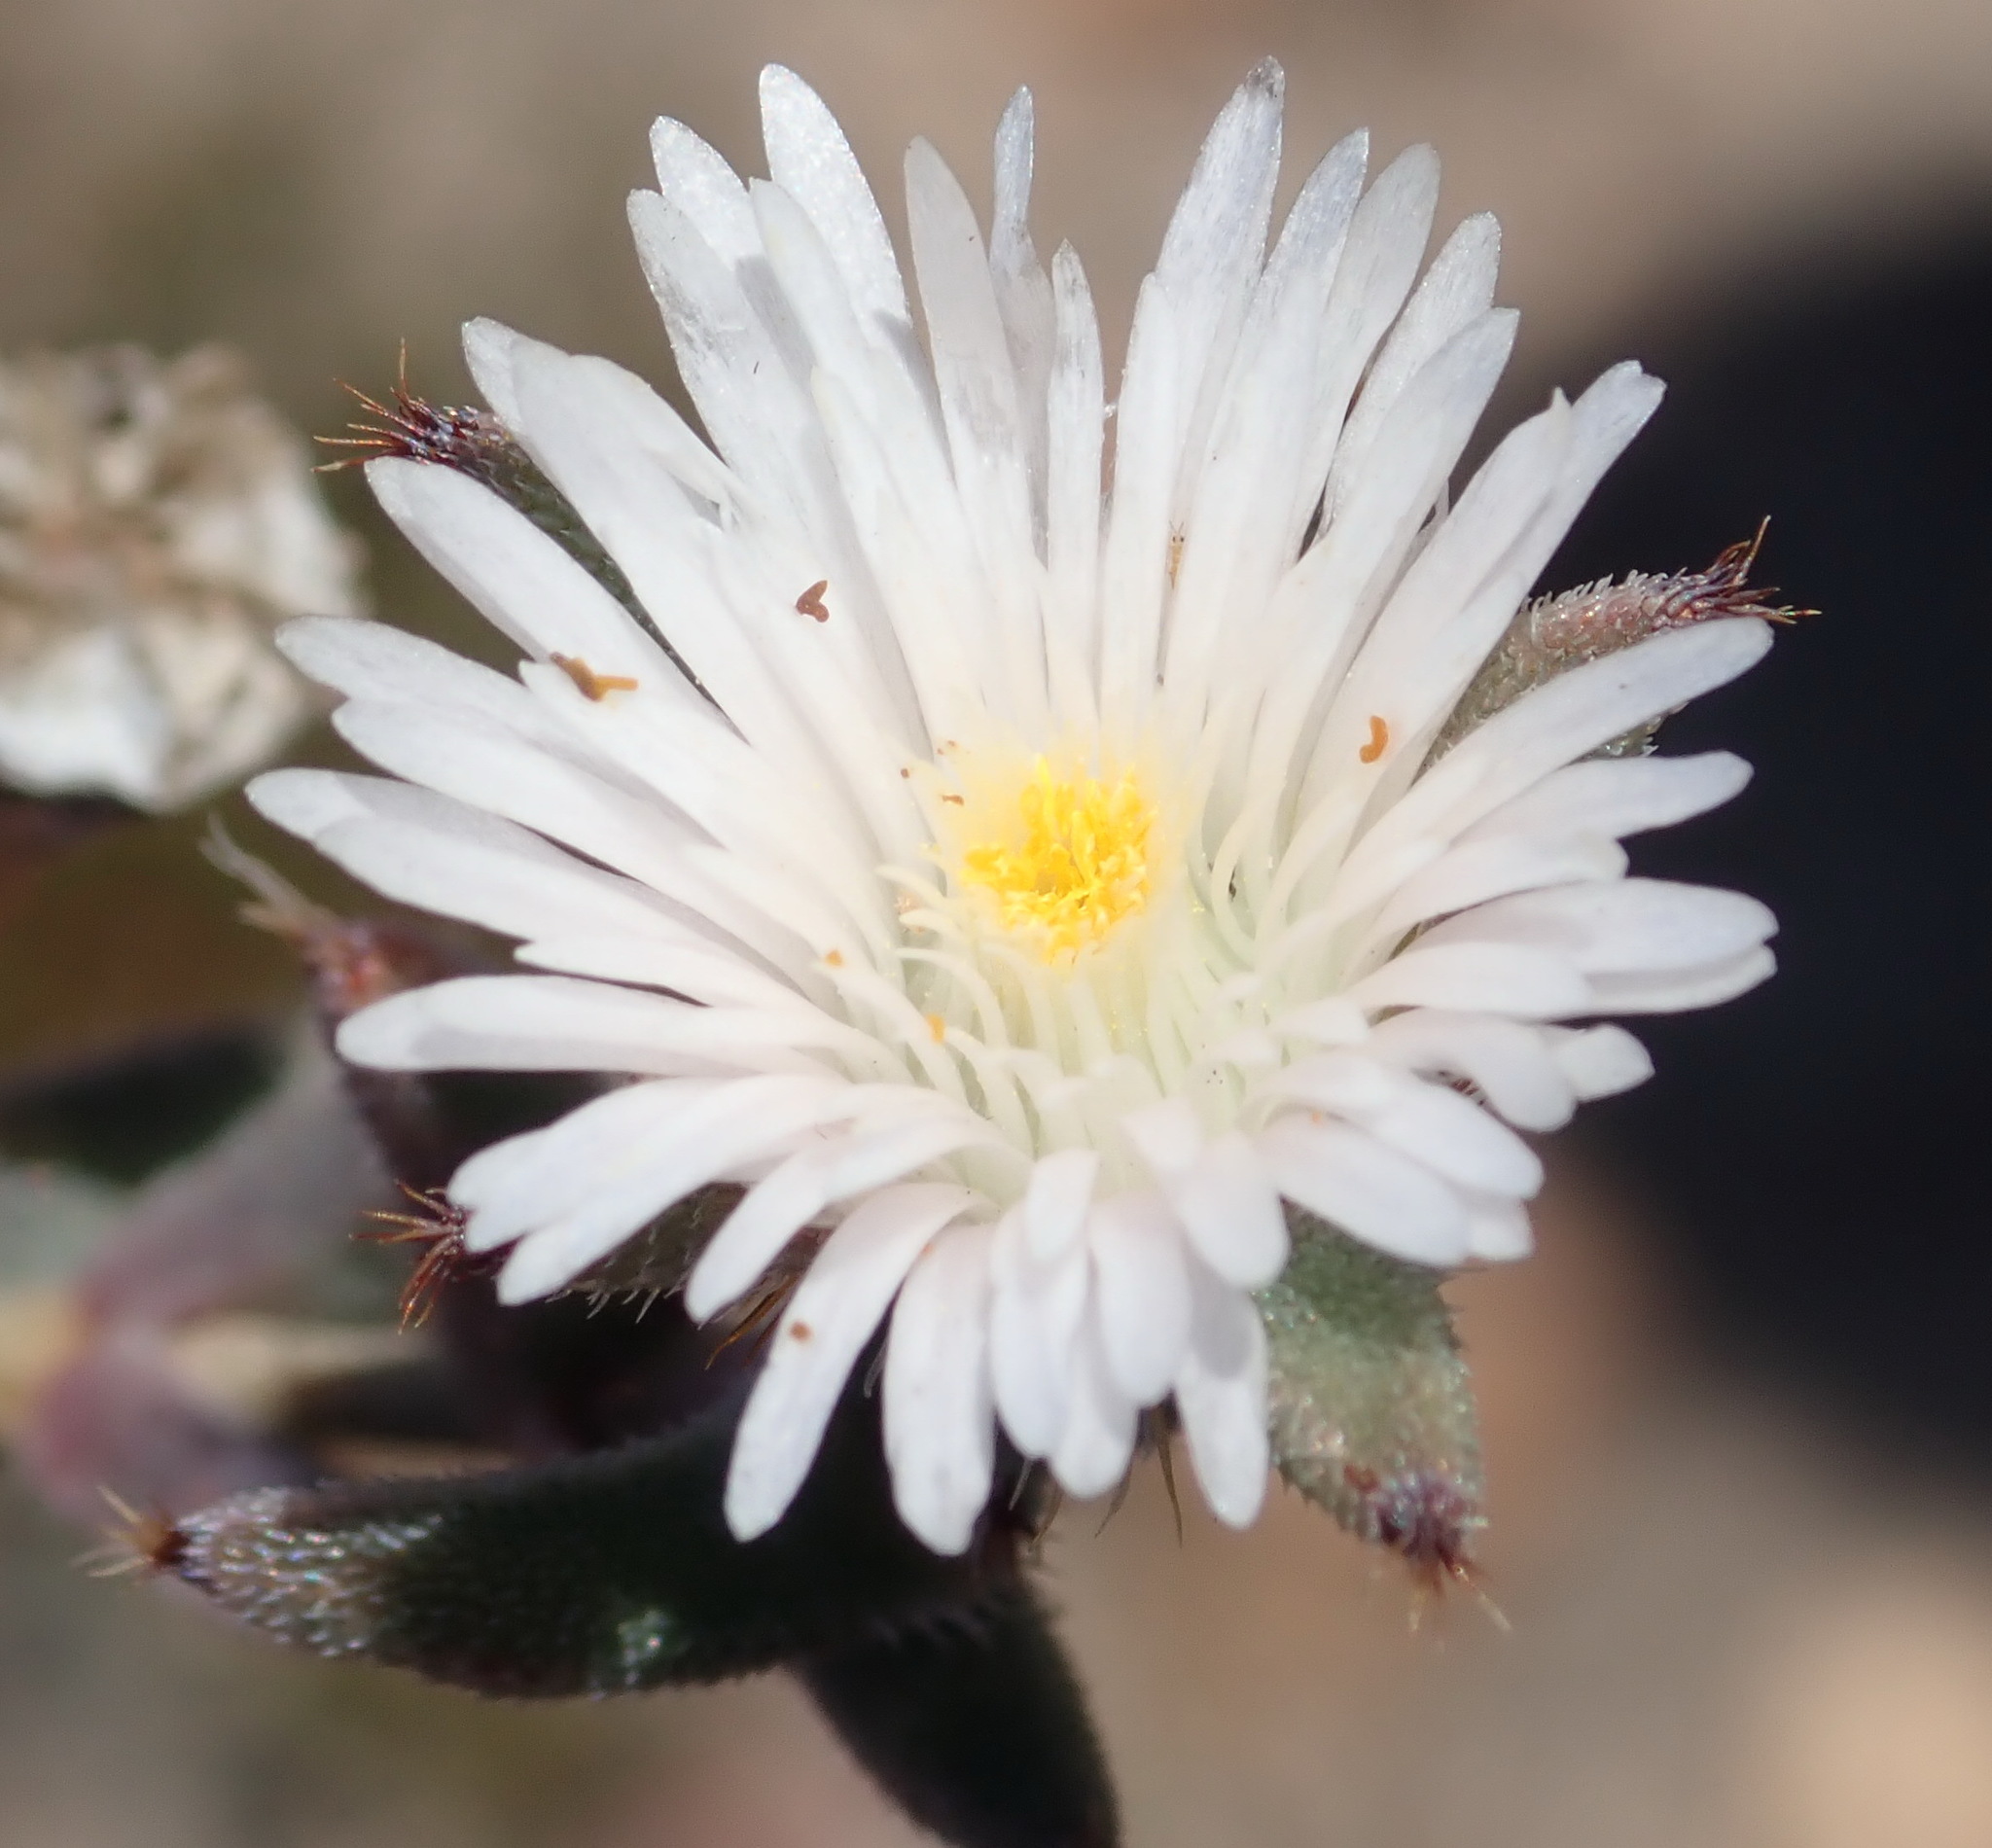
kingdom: Plantae
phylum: Tracheophyta
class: Magnoliopsida
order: Caryophyllales
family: Aizoaceae
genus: Trichodiadema
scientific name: Trichodiadema orientale
